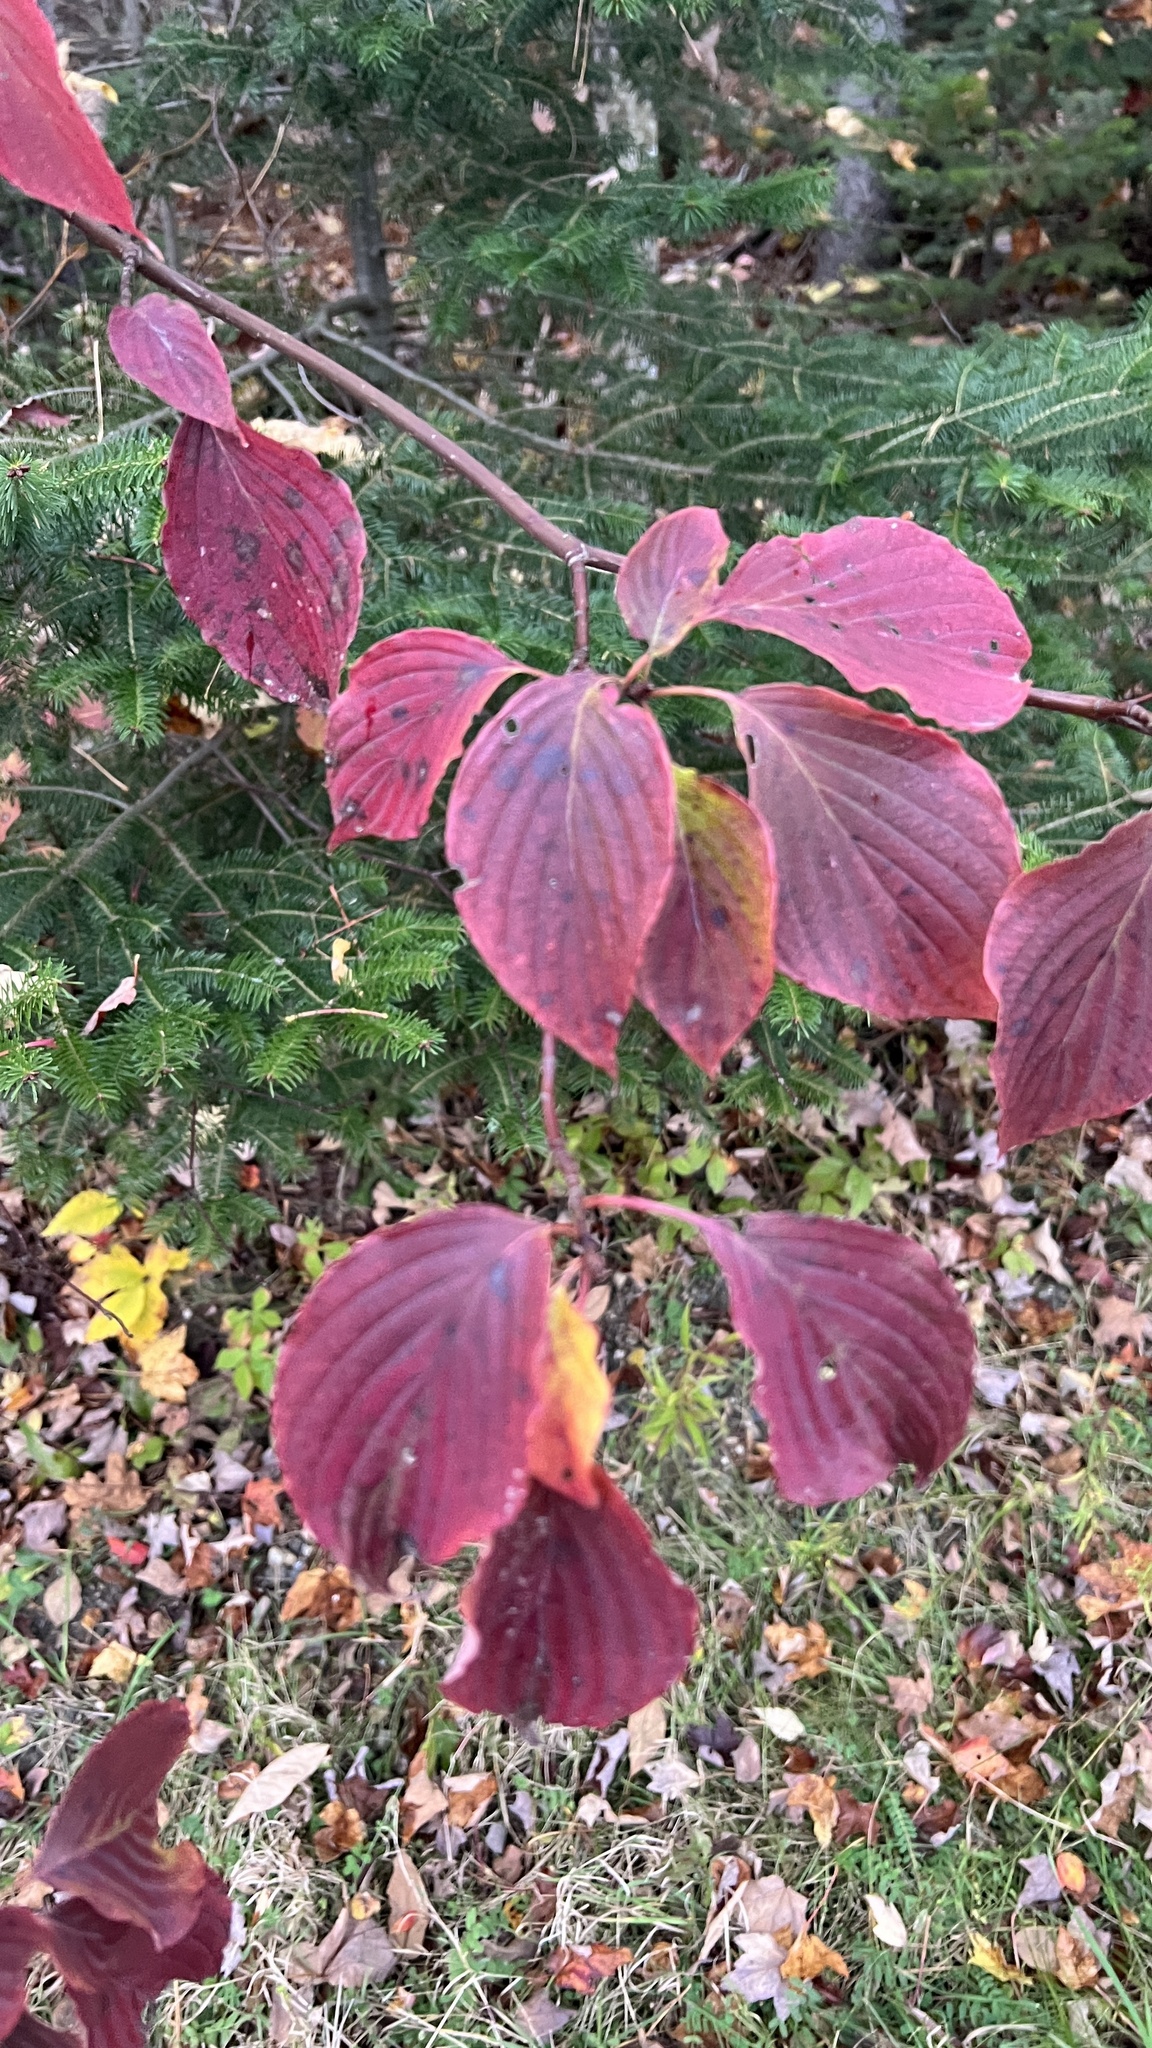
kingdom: Plantae
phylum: Tracheophyta
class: Magnoliopsida
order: Cornales
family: Cornaceae
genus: Cornus
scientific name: Cornus alternifolia
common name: Pagoda dogwood
